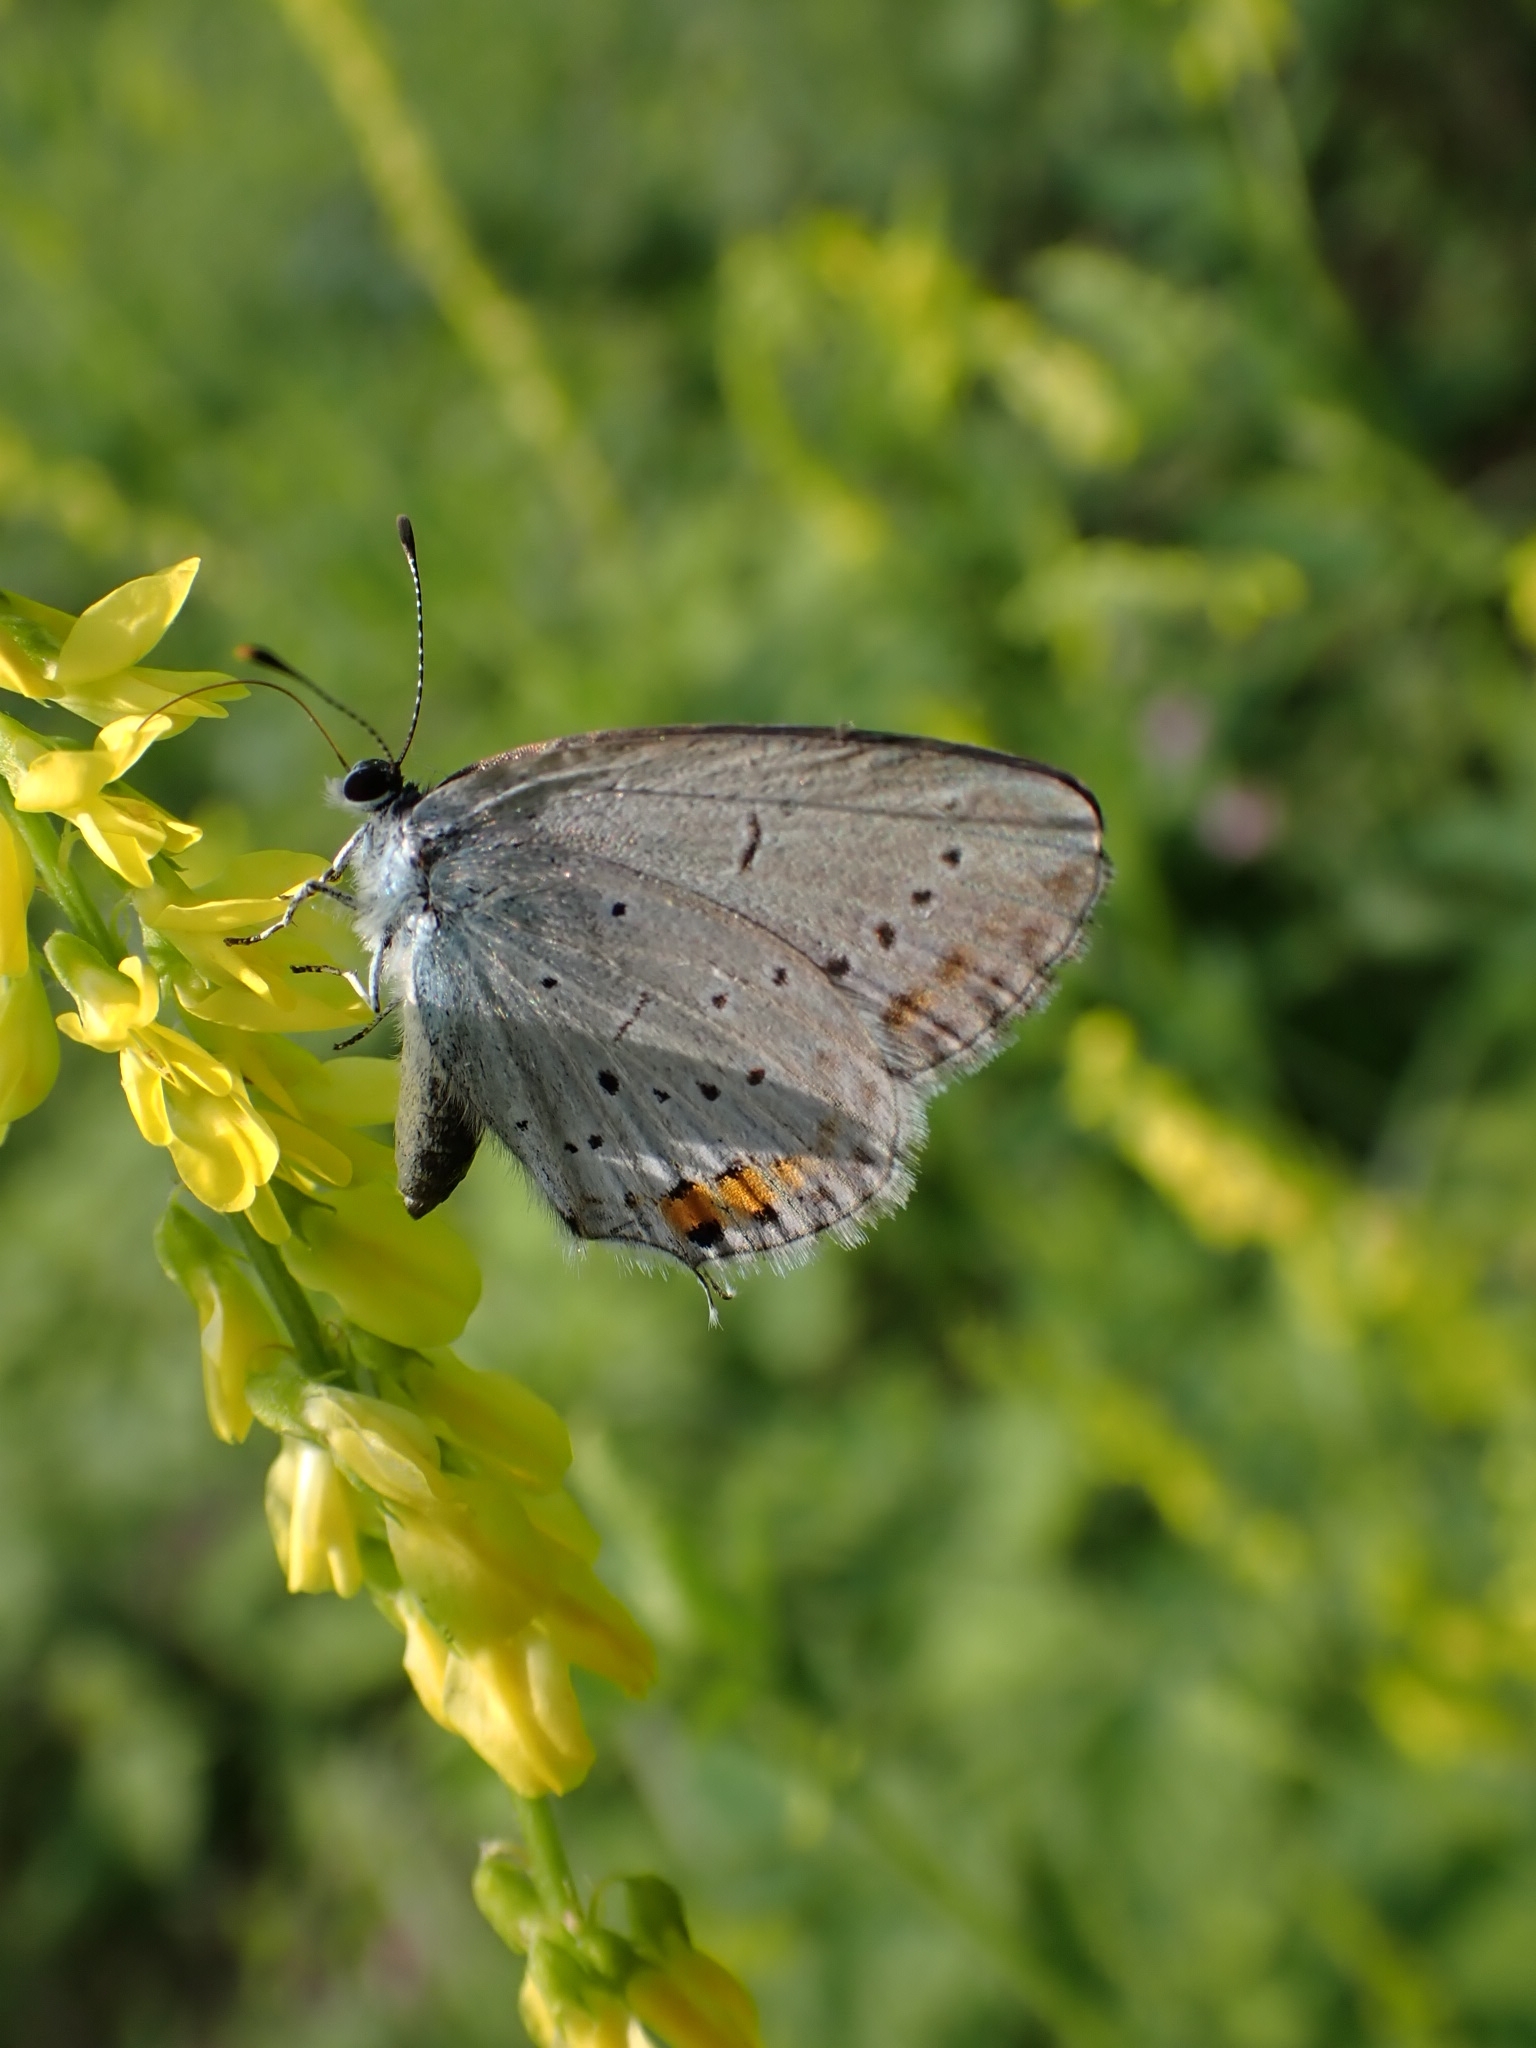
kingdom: Animalia
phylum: Arthropoda
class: Insecta
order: Lepidoptera
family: Lycaenidae
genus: Elkalyce
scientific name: Elkalyce argiades
